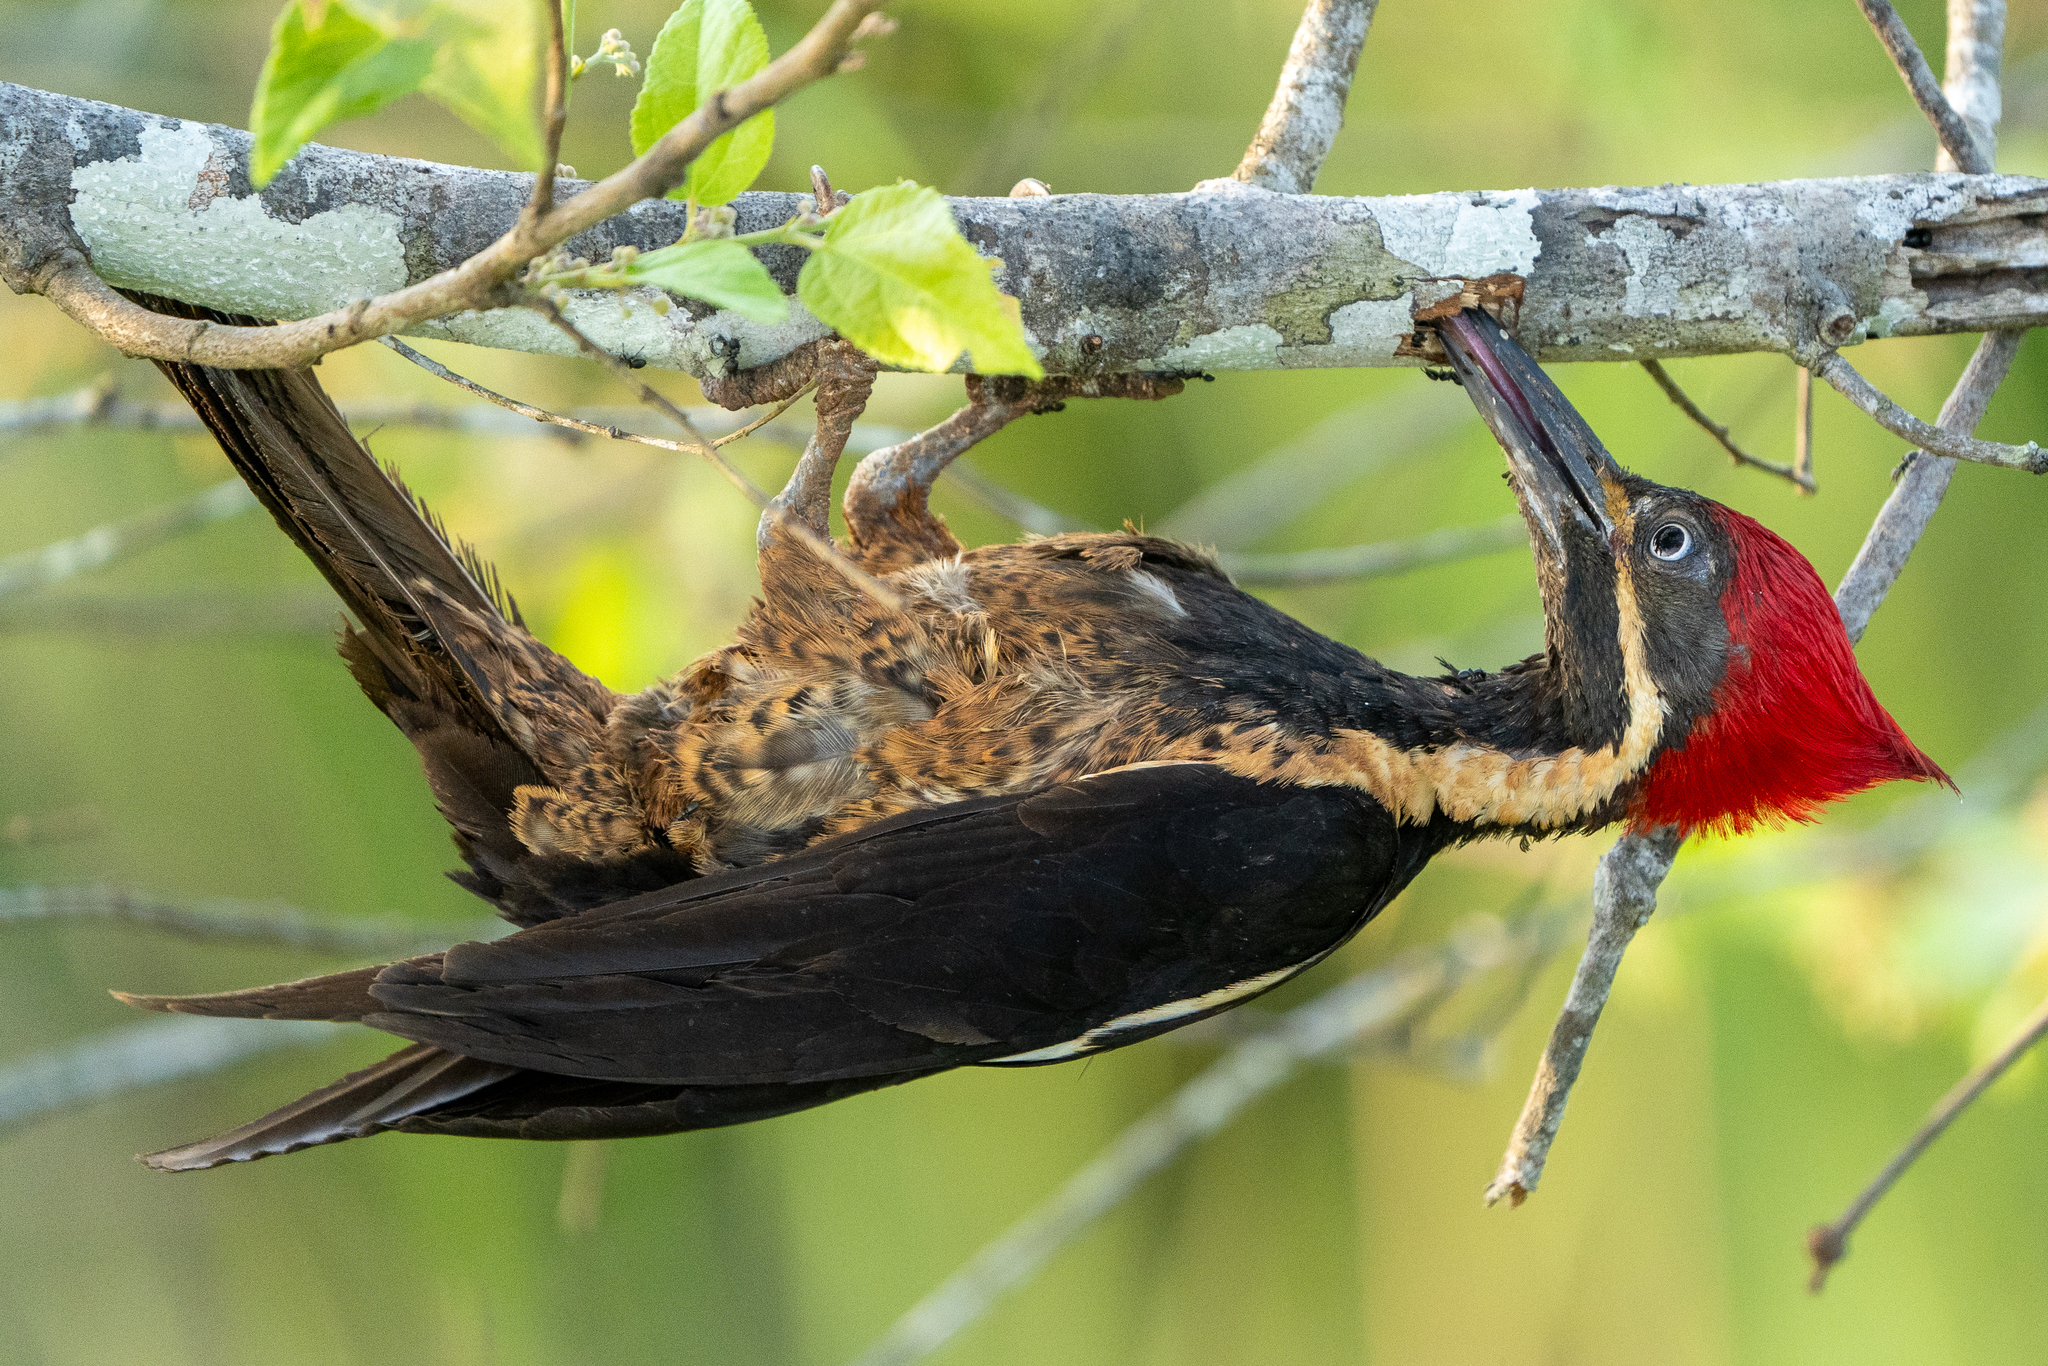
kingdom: Animalia
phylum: Chordata
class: Aves
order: Piciformes
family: Picidae
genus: Dryocopus
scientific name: Dryocopus lineatus
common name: Lineated woodpecker
